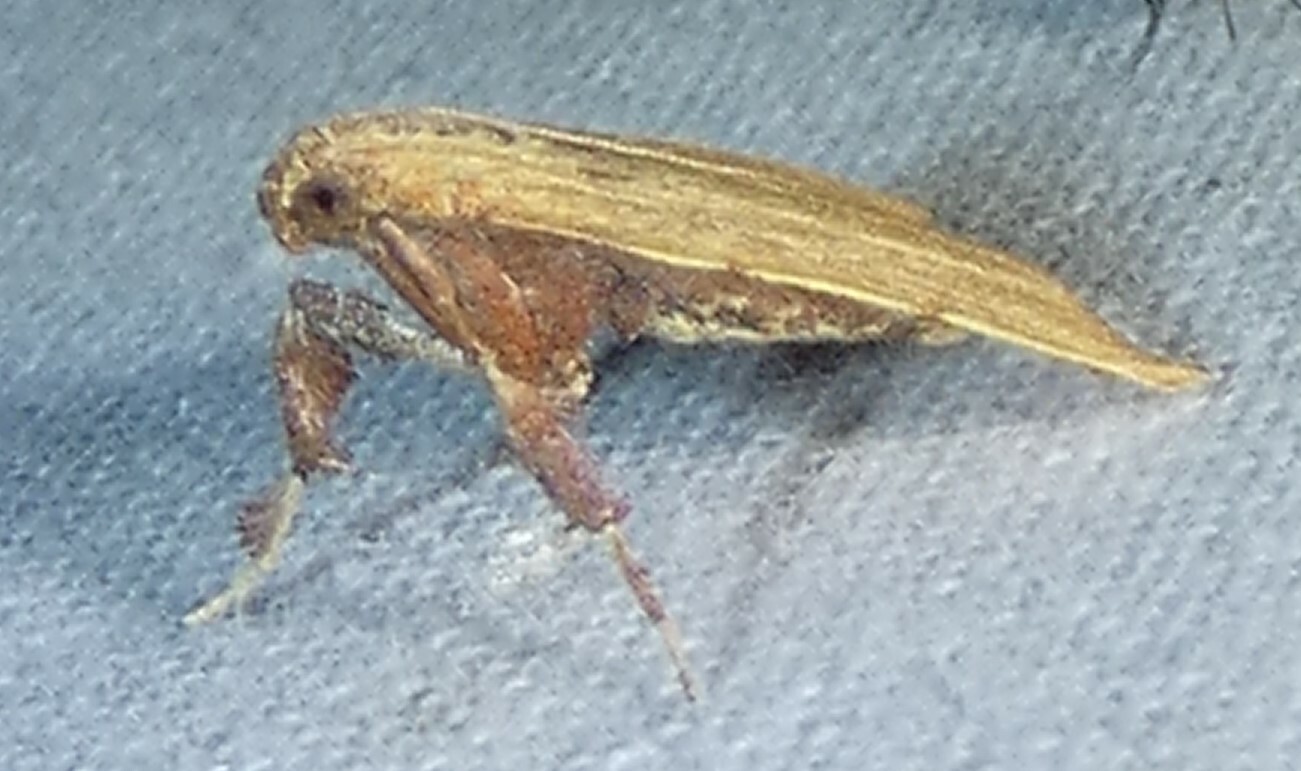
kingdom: Animalia
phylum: Arthropoda
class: Insecta
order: Lepidoptera
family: Pyralidae
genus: Parachma
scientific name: Parachma ochracealis
